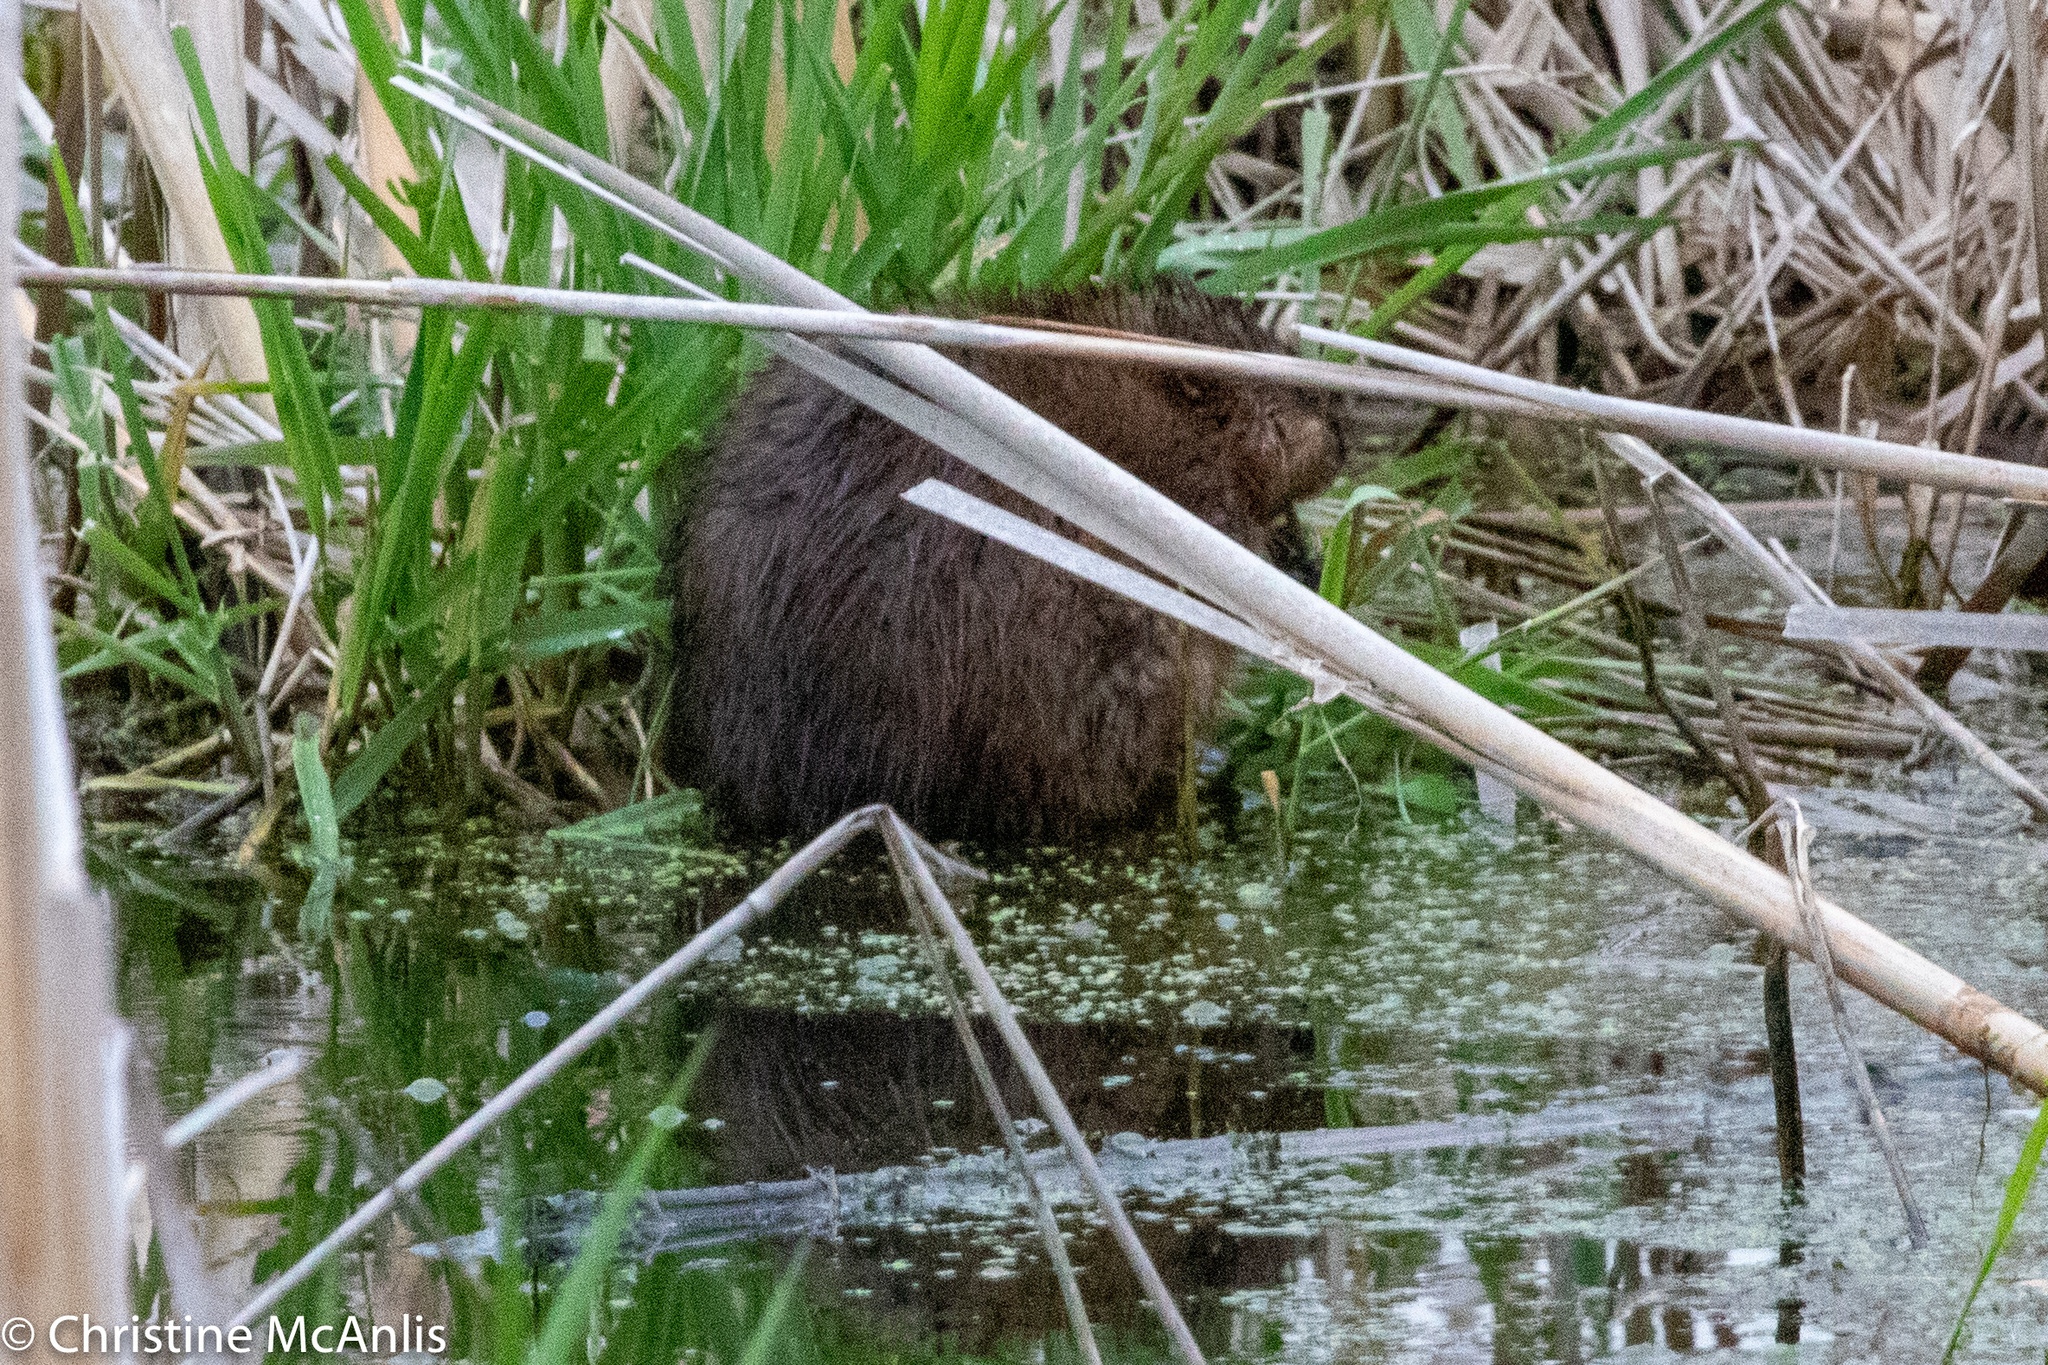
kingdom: Animalia
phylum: Chordata
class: Mammalia
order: Rodentia
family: Cricetidae
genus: Ondatra
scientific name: Ondatra zibethicus
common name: Muskrat
